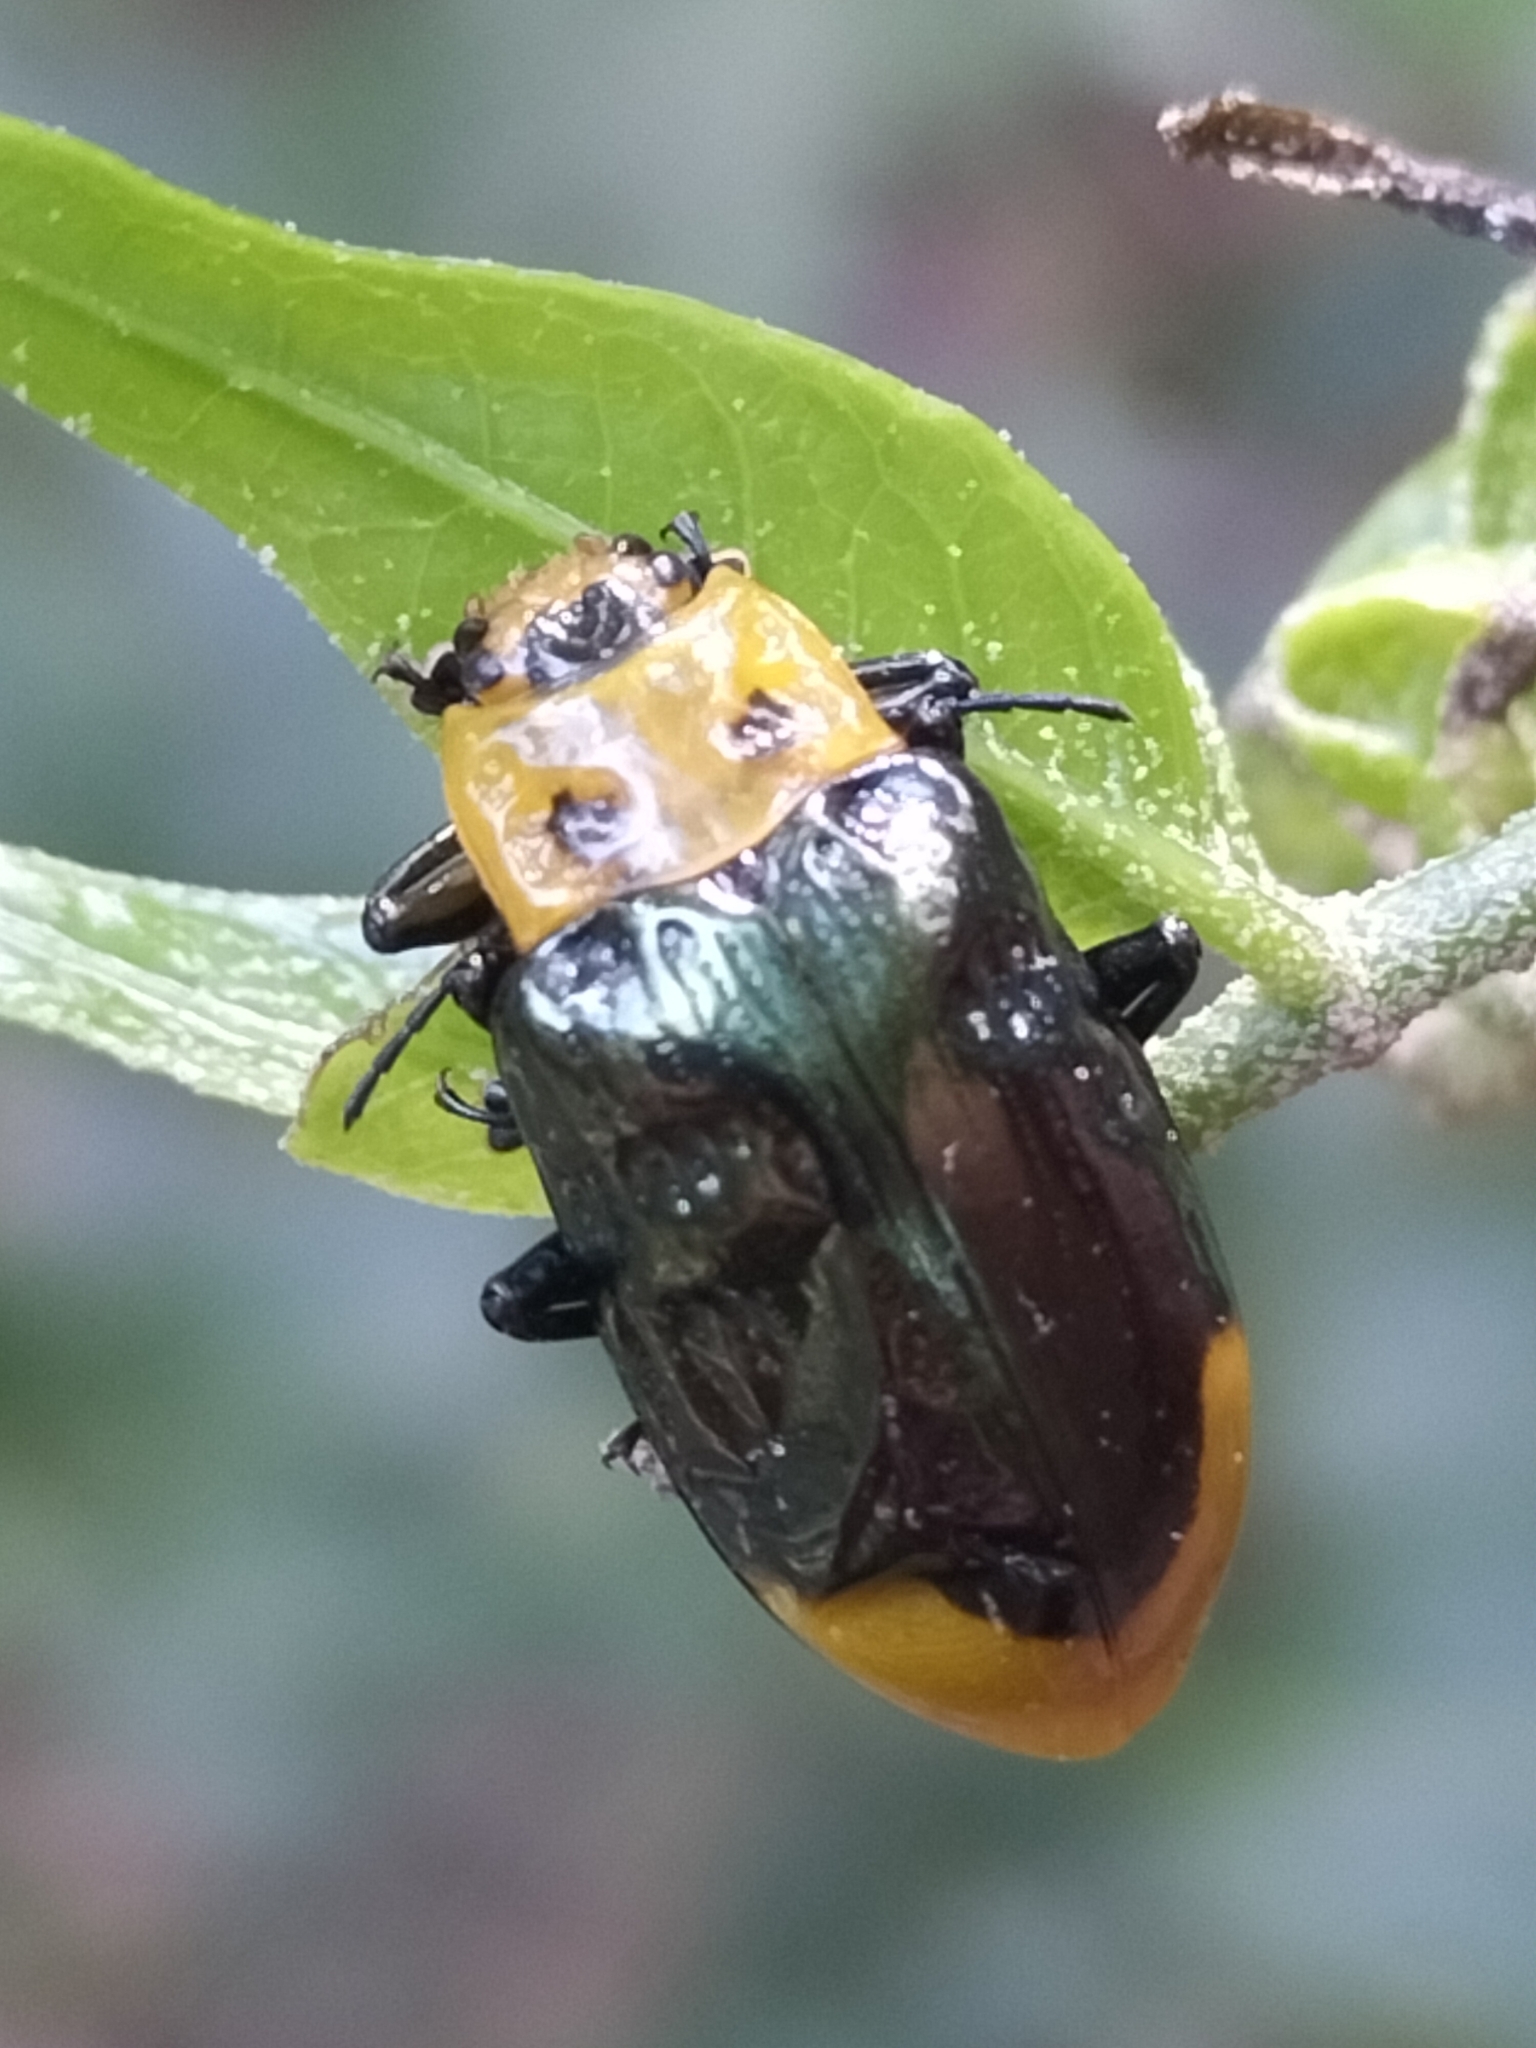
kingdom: Animalia
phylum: Arthropoda
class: Insecta
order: Coleoptera
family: Chrysomelidae
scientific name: Chrysomelidae
